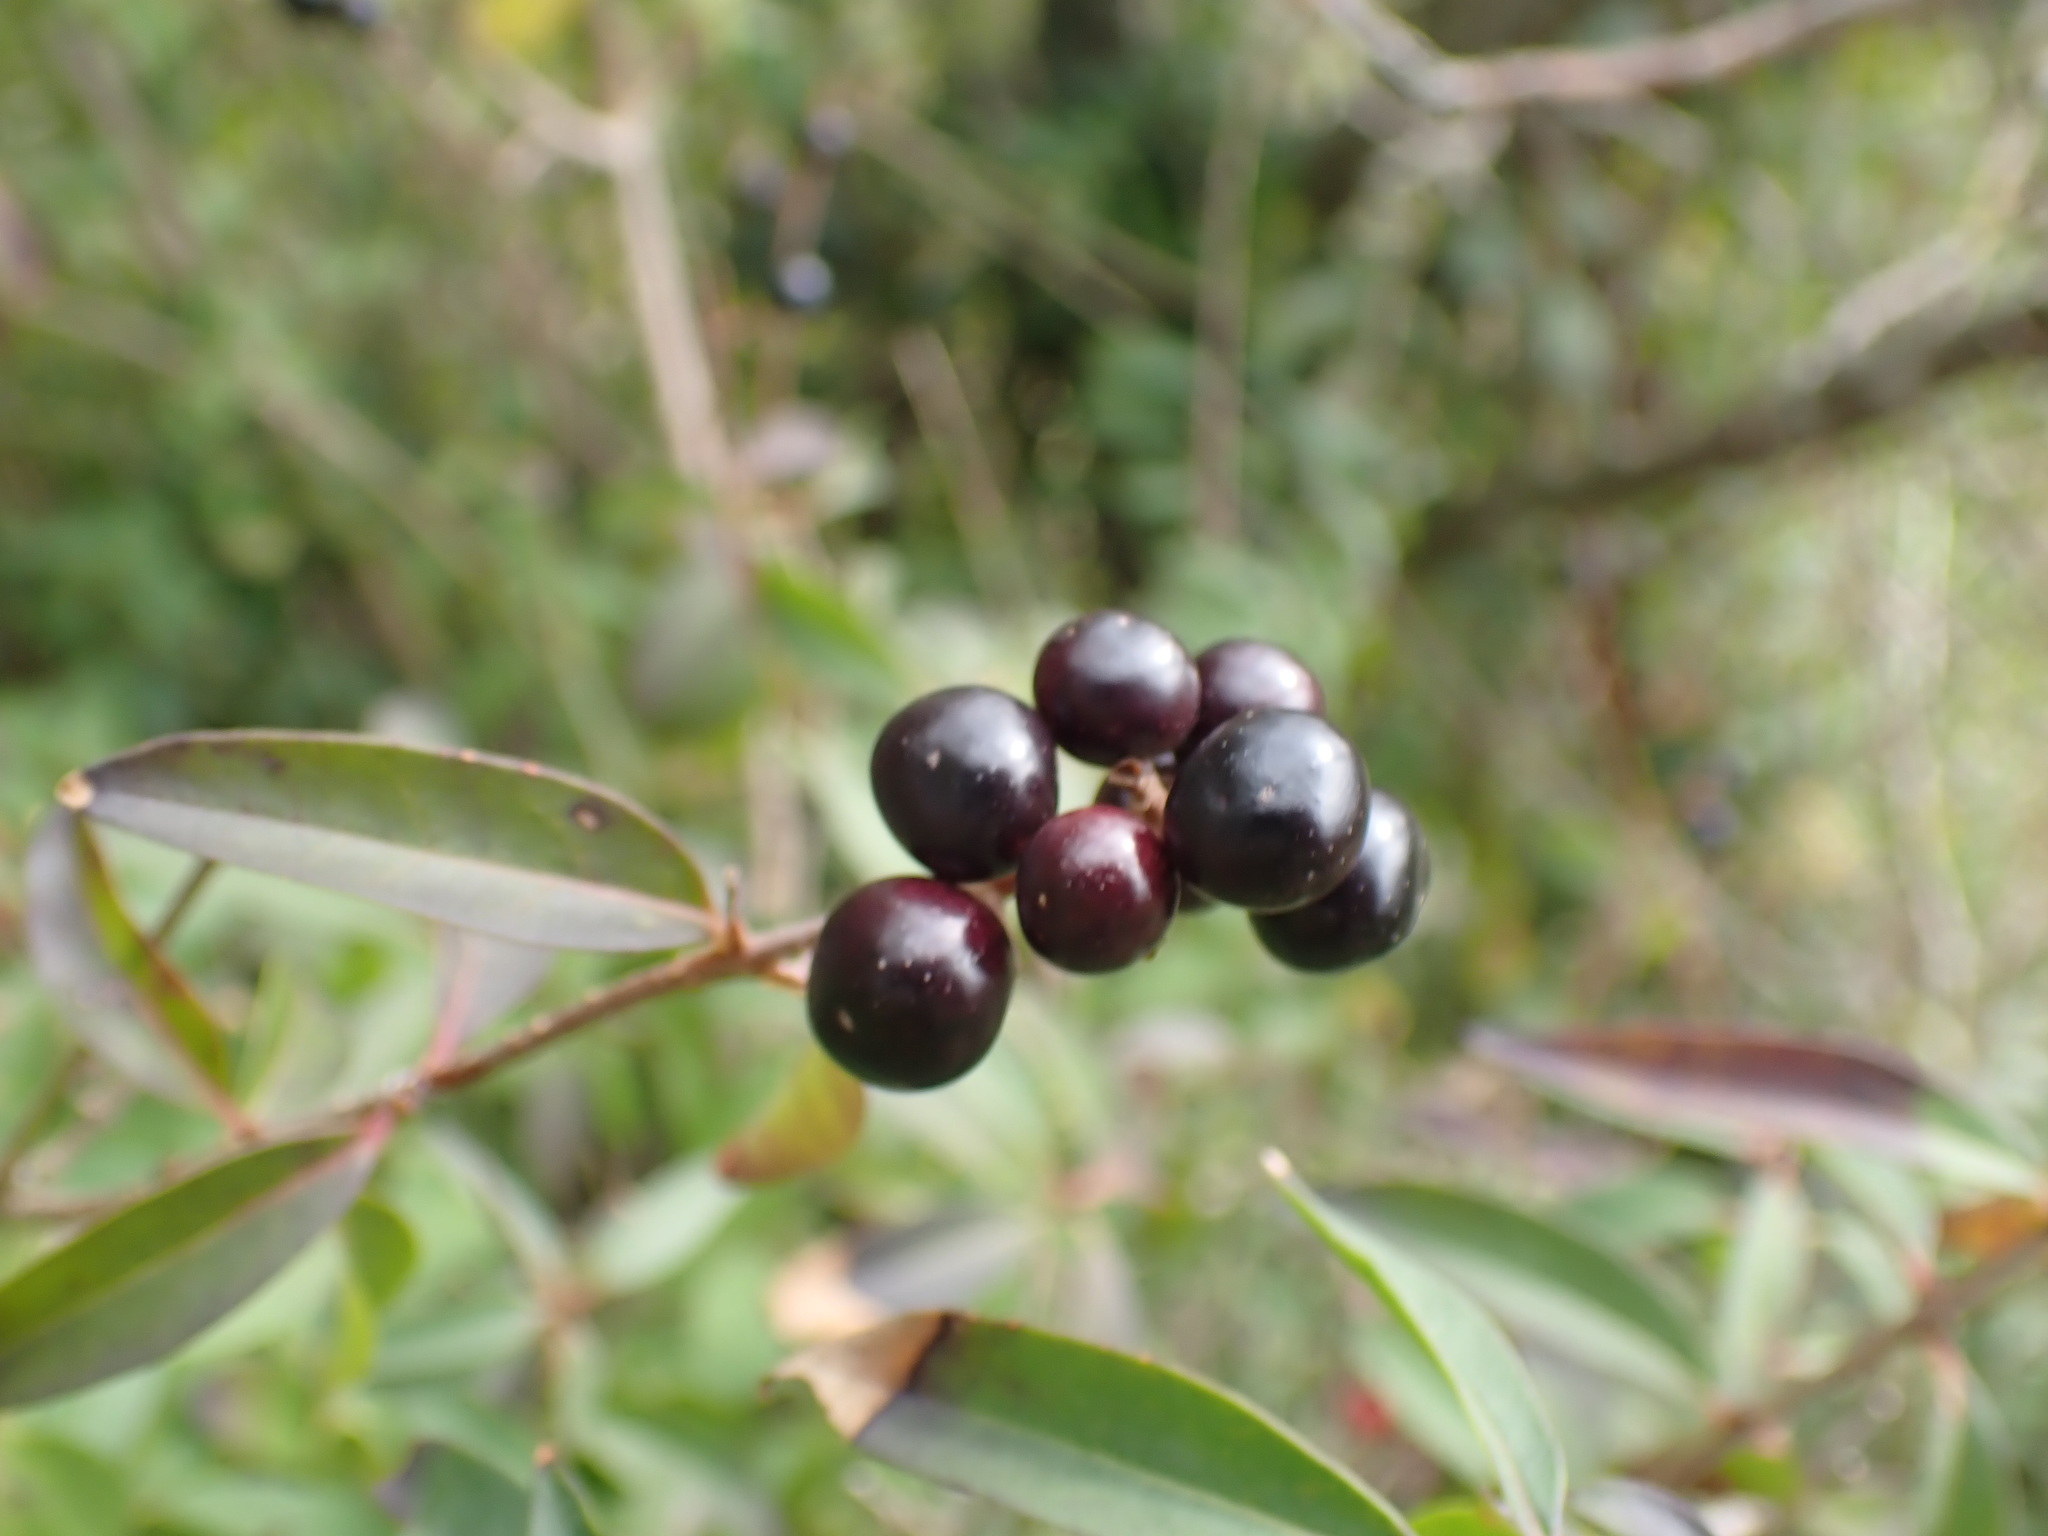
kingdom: Plantae
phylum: Tracheophyta
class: Magnoliopsida
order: Lamiales
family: Oleaceae
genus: Ligustrum
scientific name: Ligustrum vulgare
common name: Wild privet
